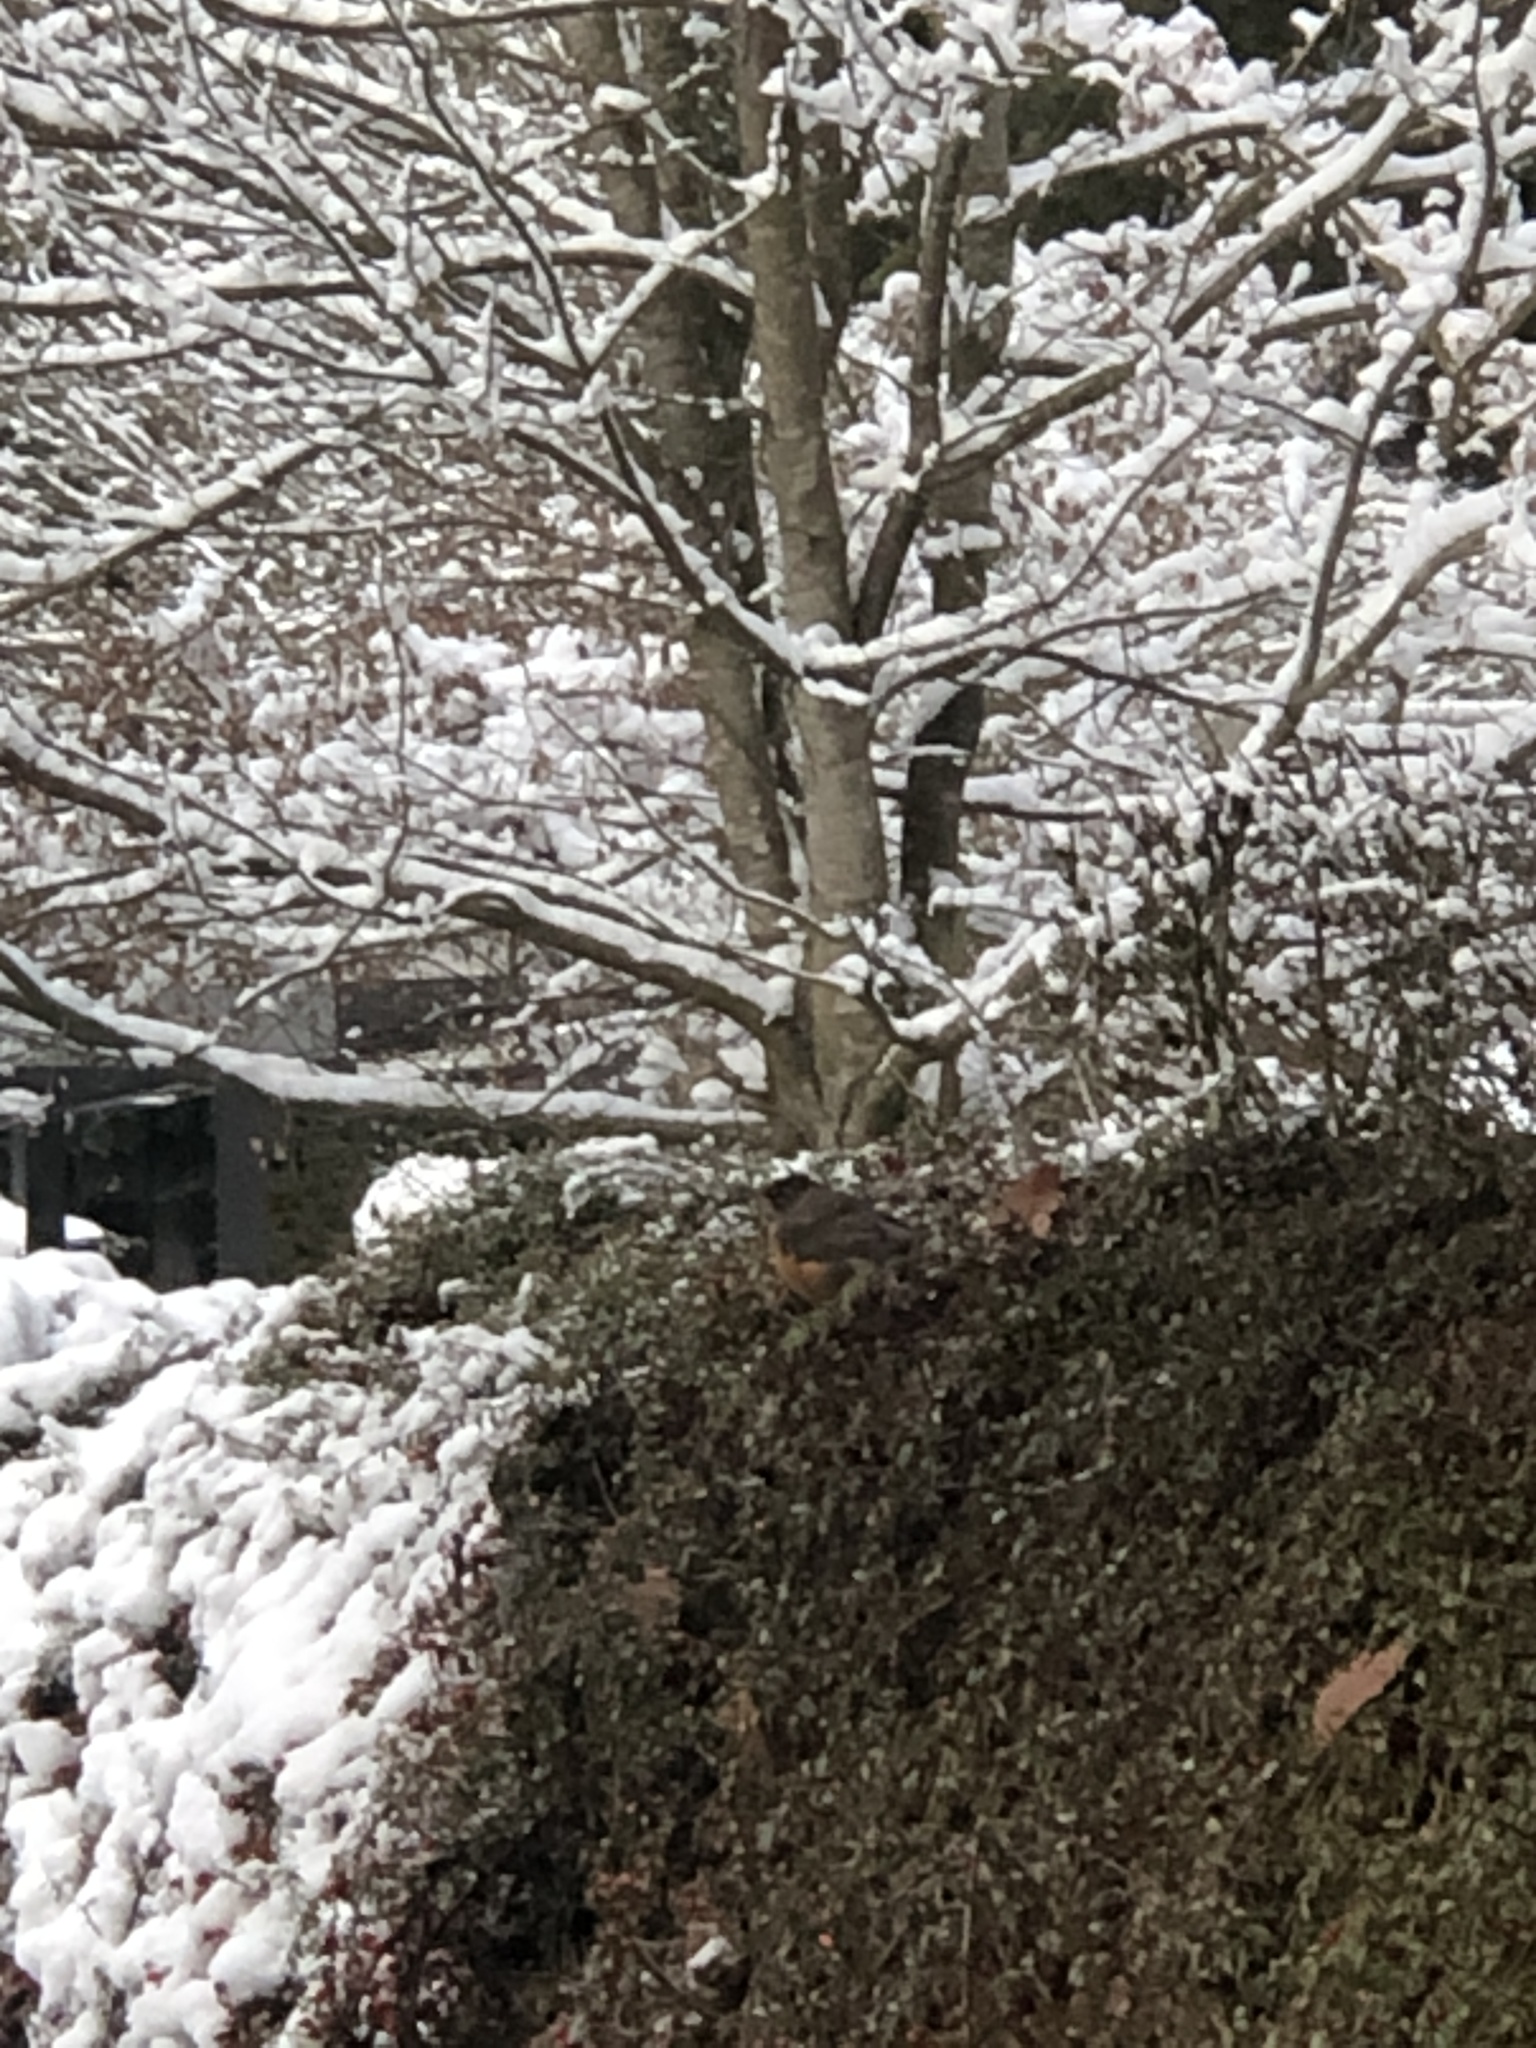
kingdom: Animalia
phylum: Chordata
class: Aves
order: Passeriformes
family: Turdidae
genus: Turdus
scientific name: Turdus migratorius
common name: American robin
